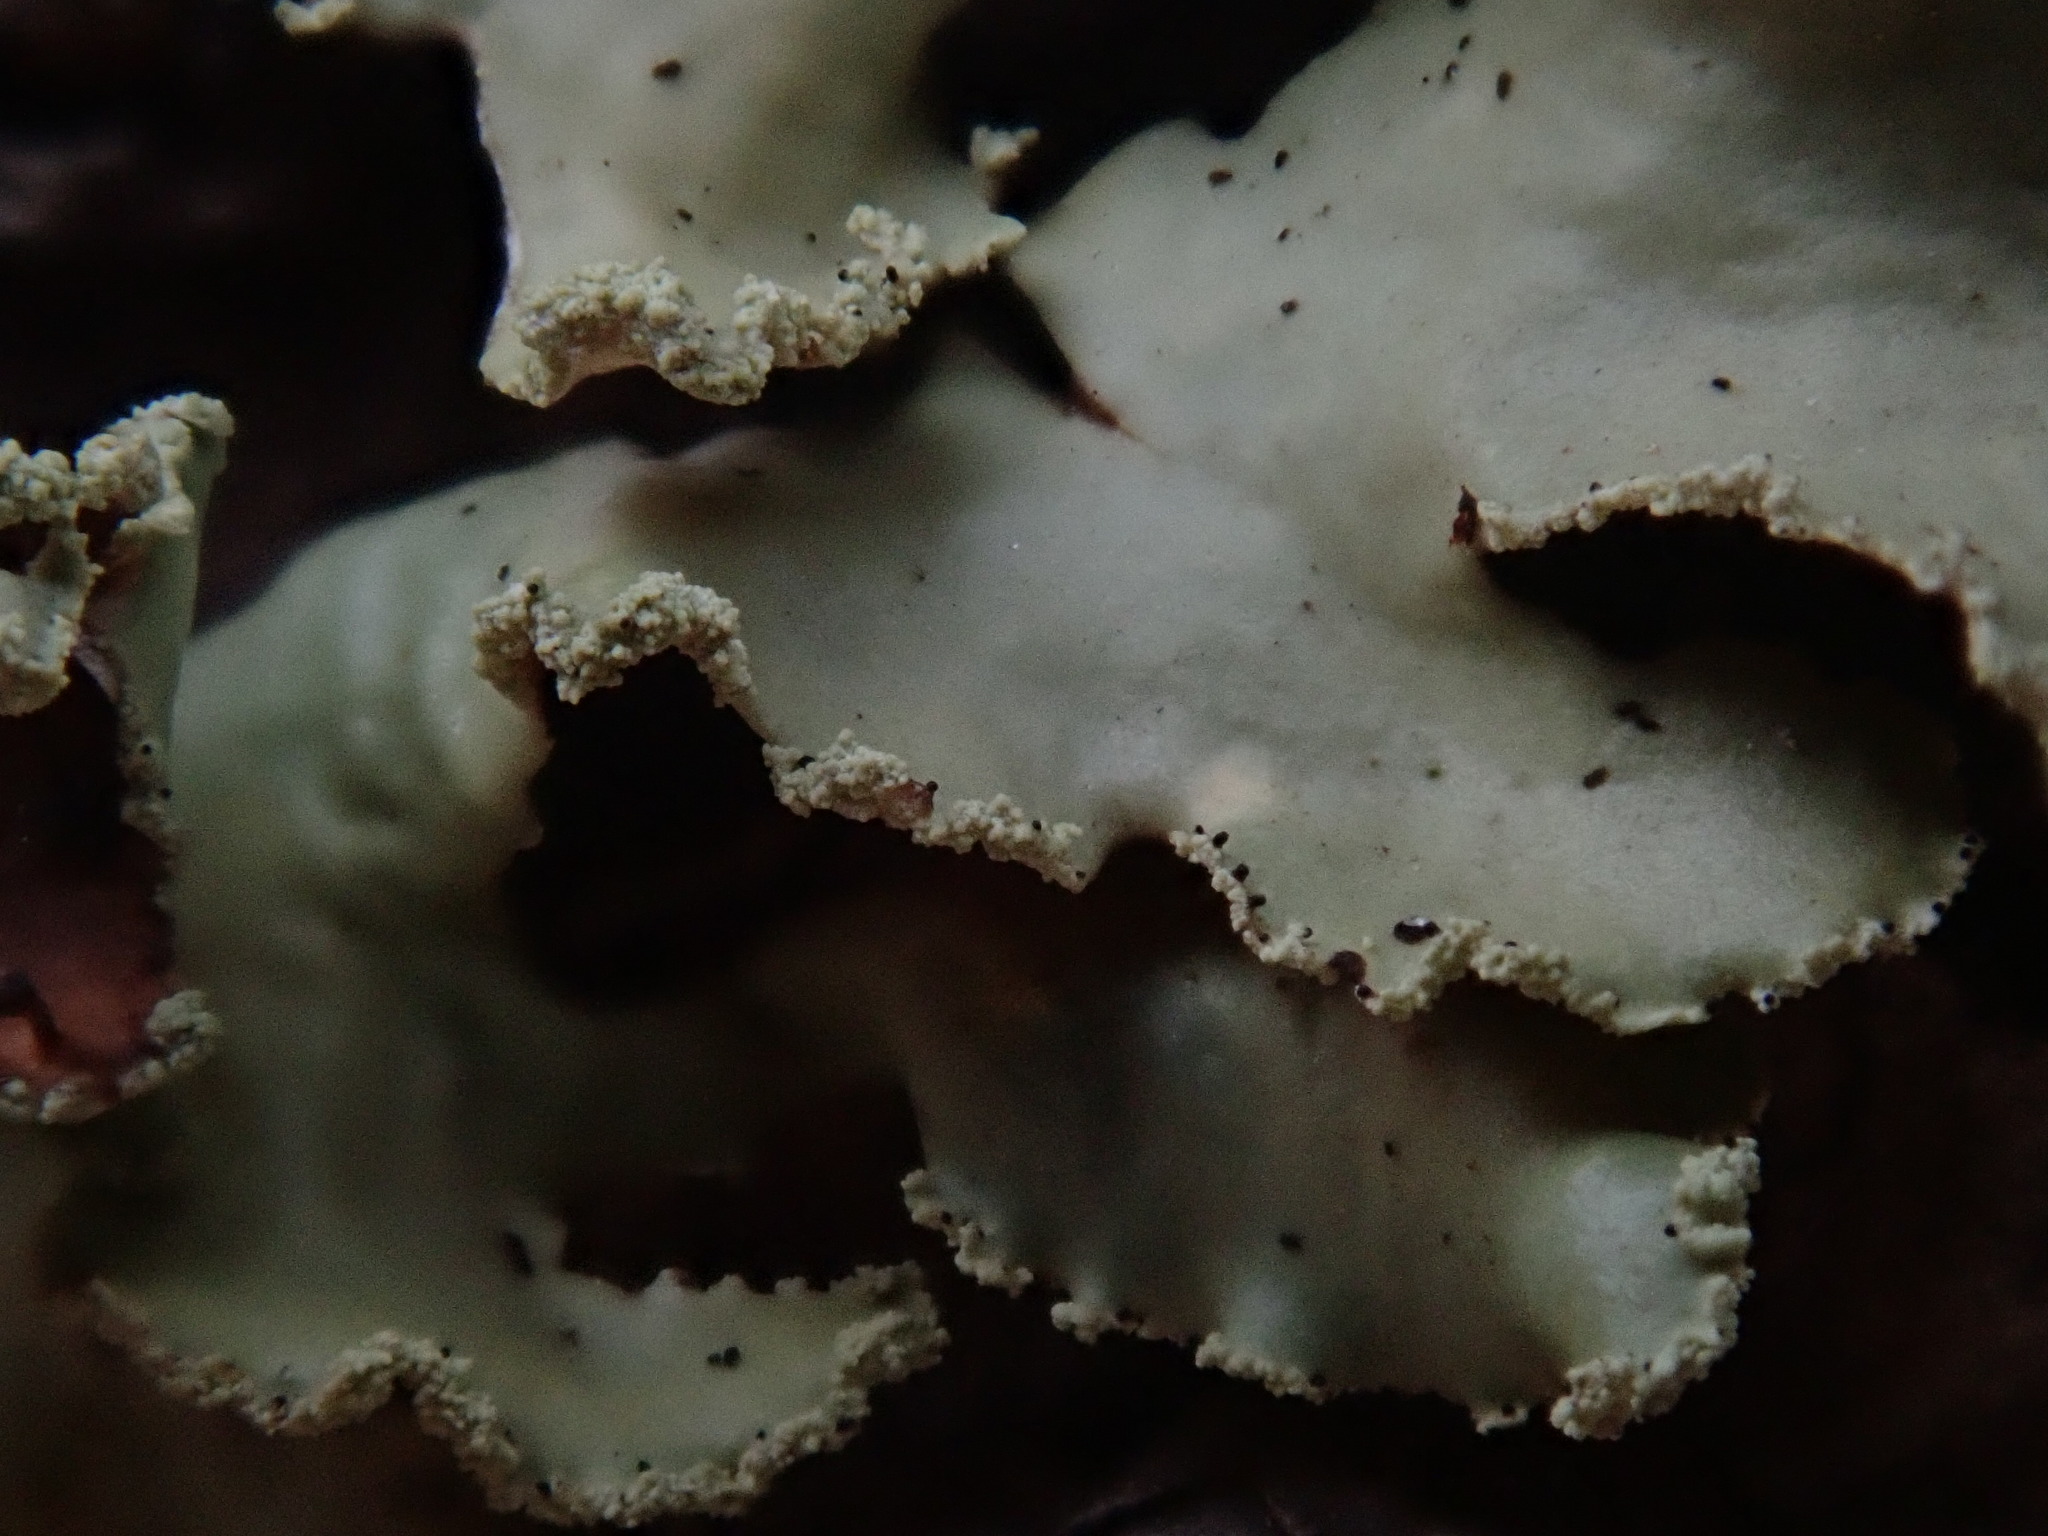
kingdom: Fungi
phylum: Ascomycota
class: Lecanoromycetes
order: Lecanorales
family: Parmeliaceae
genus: Usnocetraria
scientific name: Usnocetraria oakesiana
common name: Yellow ribbon lichen
